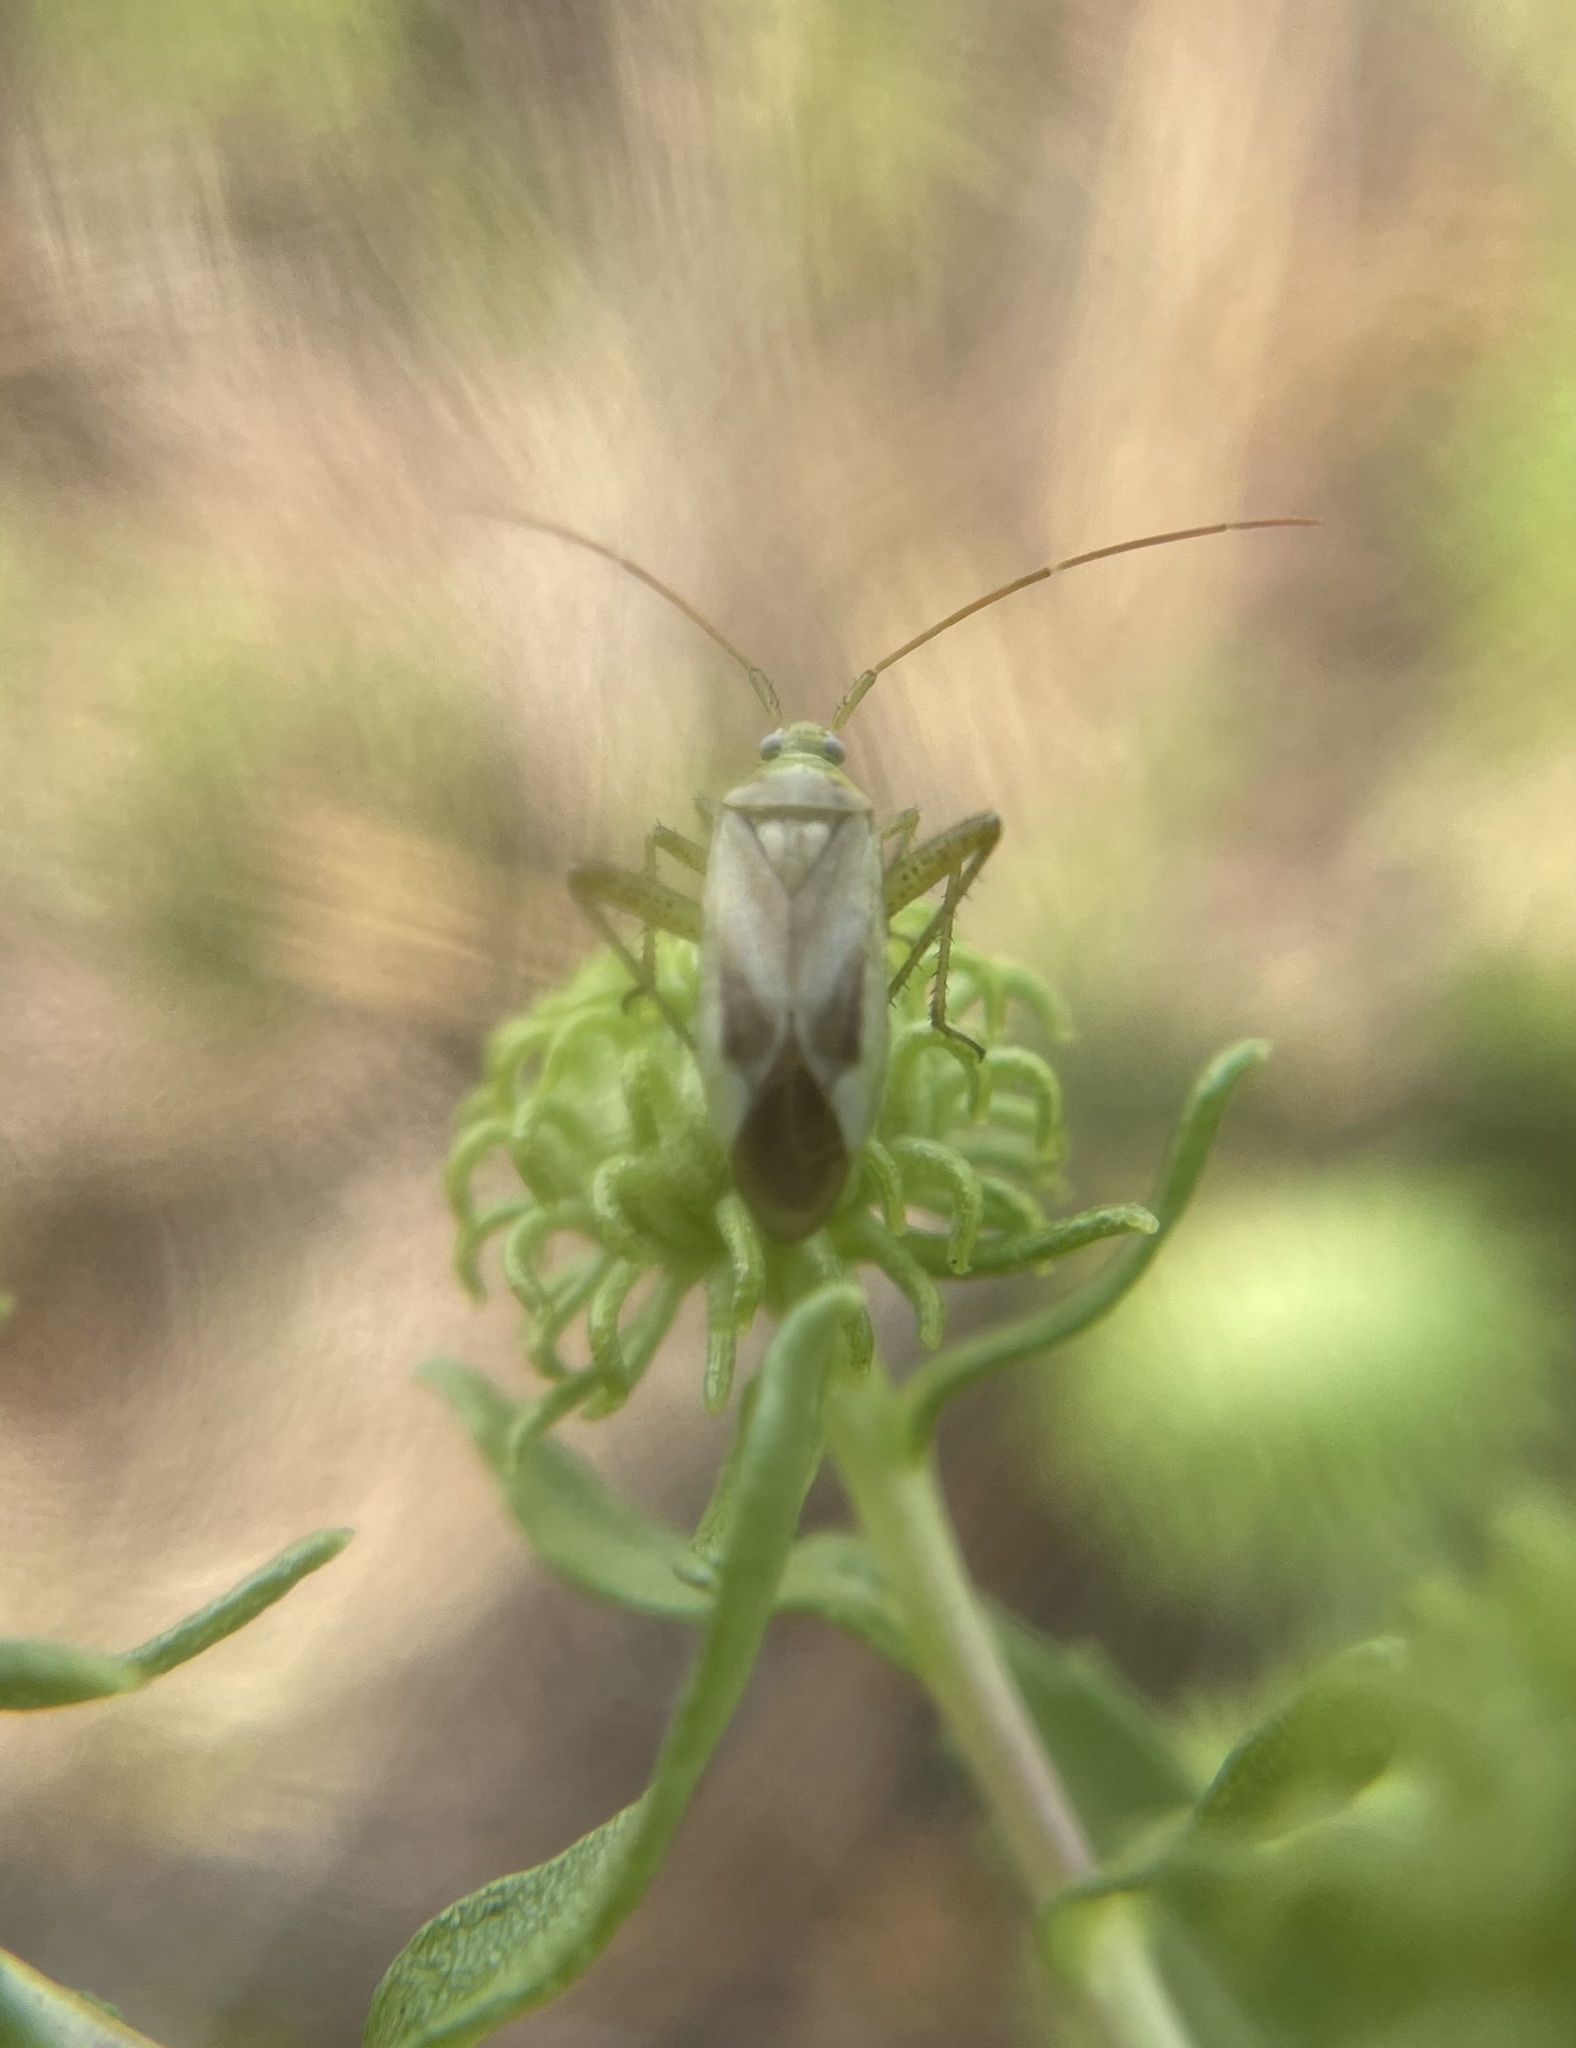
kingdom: Animalia
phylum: Arthropoda
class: Insecta
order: Hemiptera
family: Miridae
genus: Adelphocoris
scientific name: Adelphocoris lineolatus
